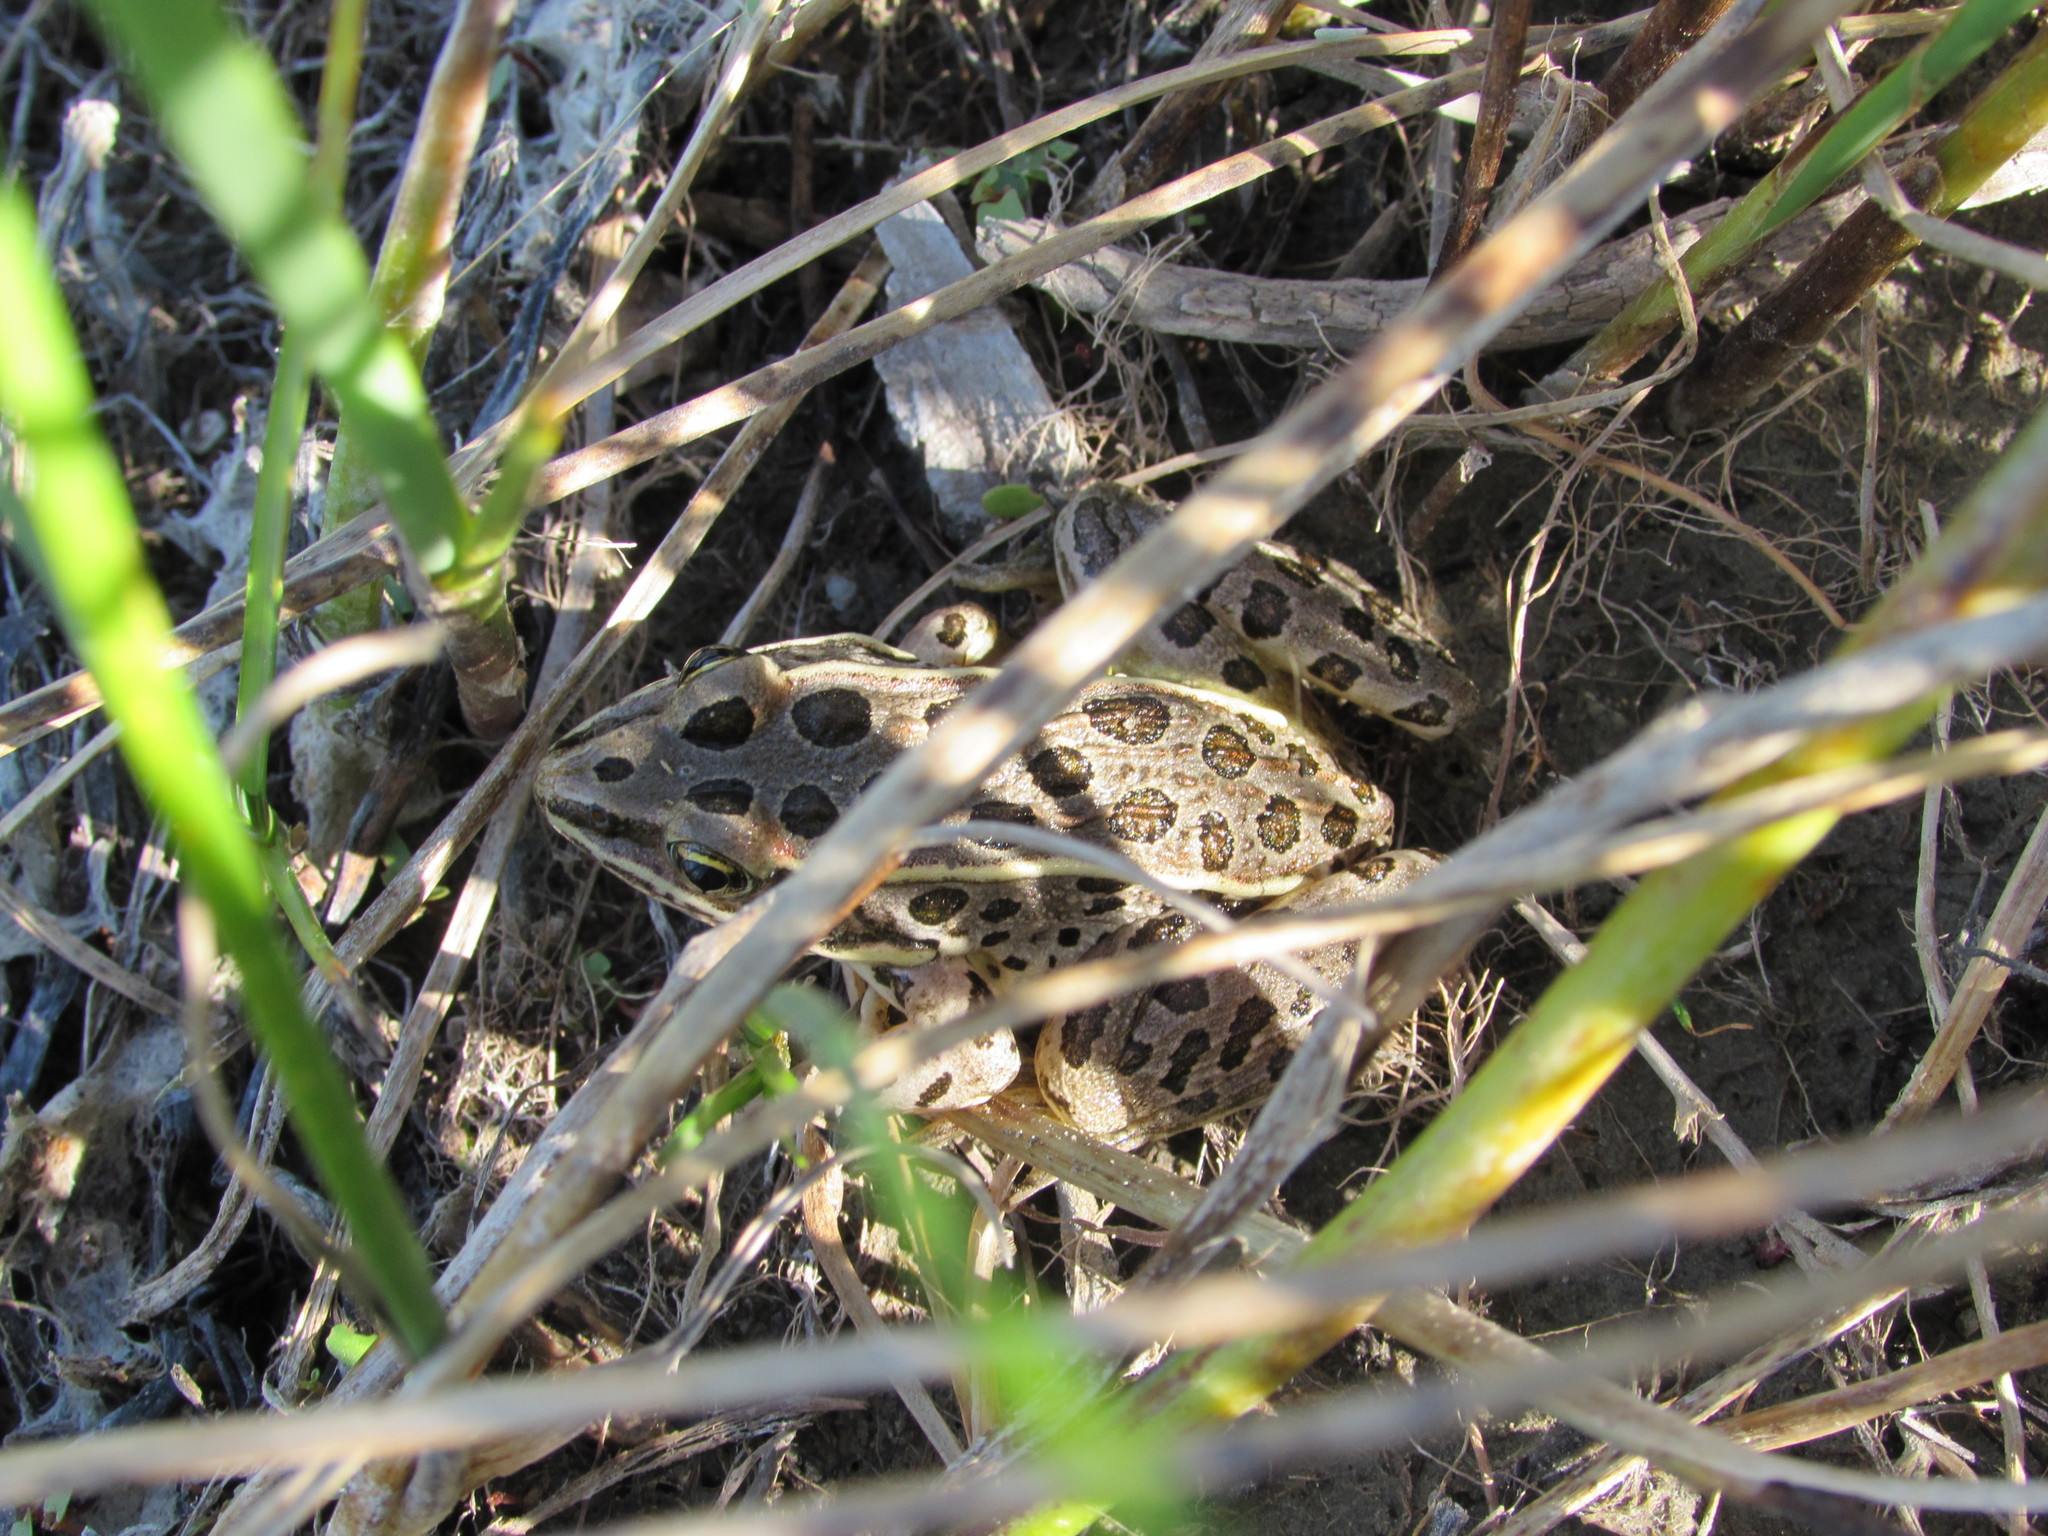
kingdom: Animalia
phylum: Chordata
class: Amphibia
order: Anura
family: Ranidae
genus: Lithobates
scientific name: Lithobates pipiens
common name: Northern leopard frog
